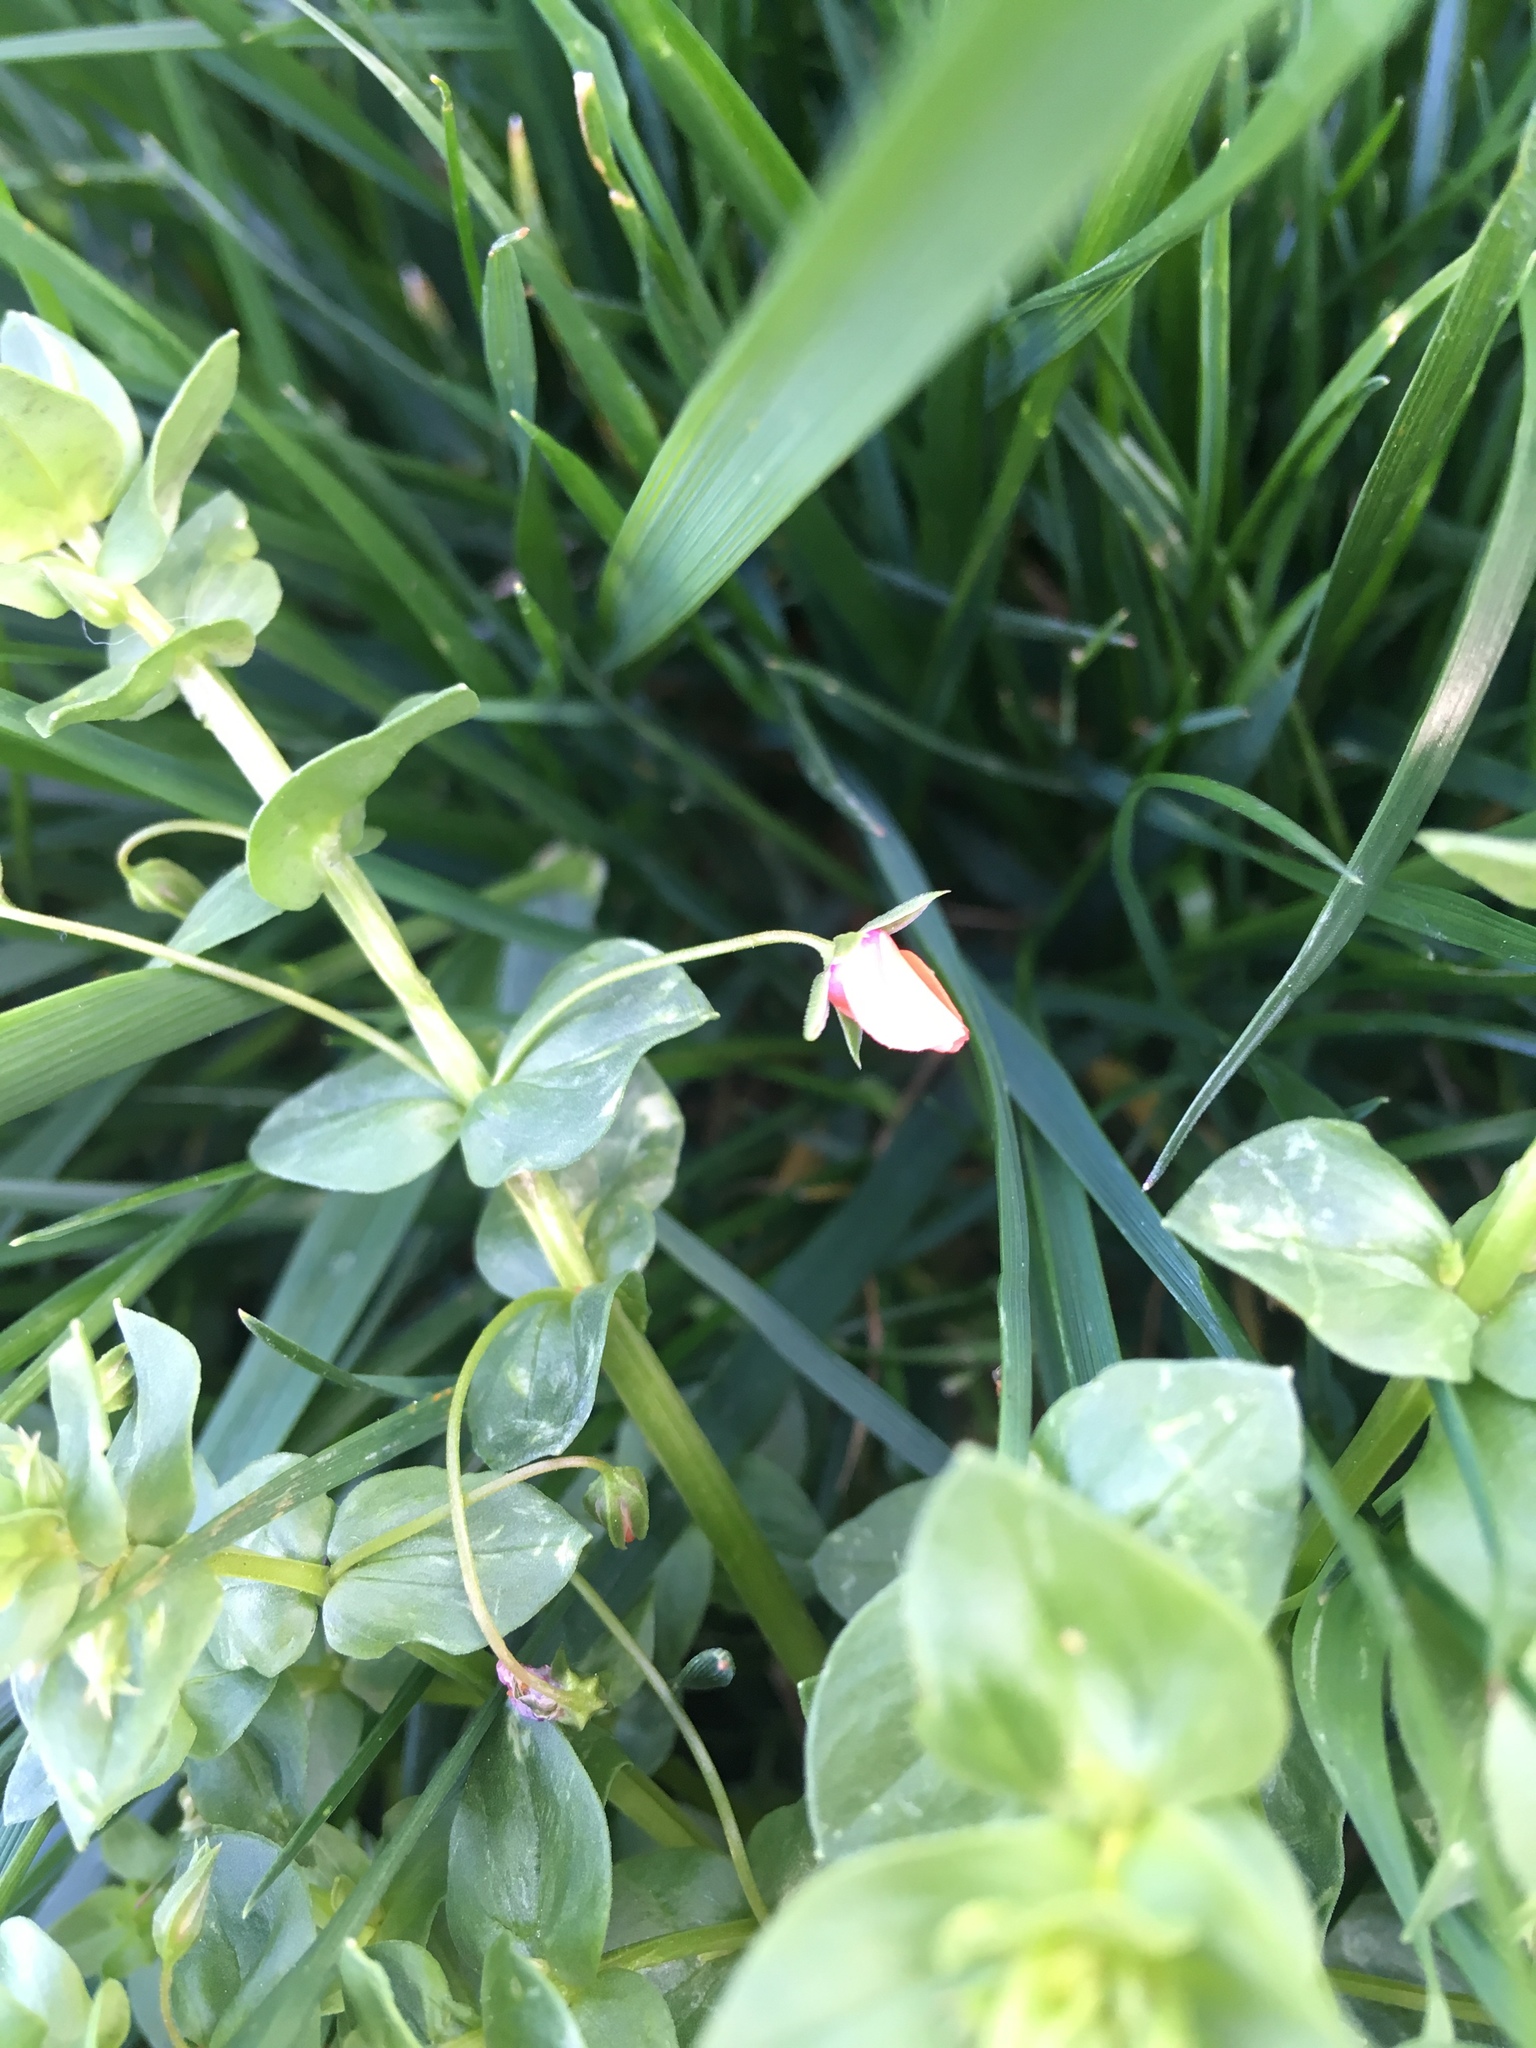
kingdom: Plantae
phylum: Tracheophyta
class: Magnoliopsida
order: Ericales
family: Primulaceae
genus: Lysimachia
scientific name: Lysimachia arvensis
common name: Scarlet pimpernel
